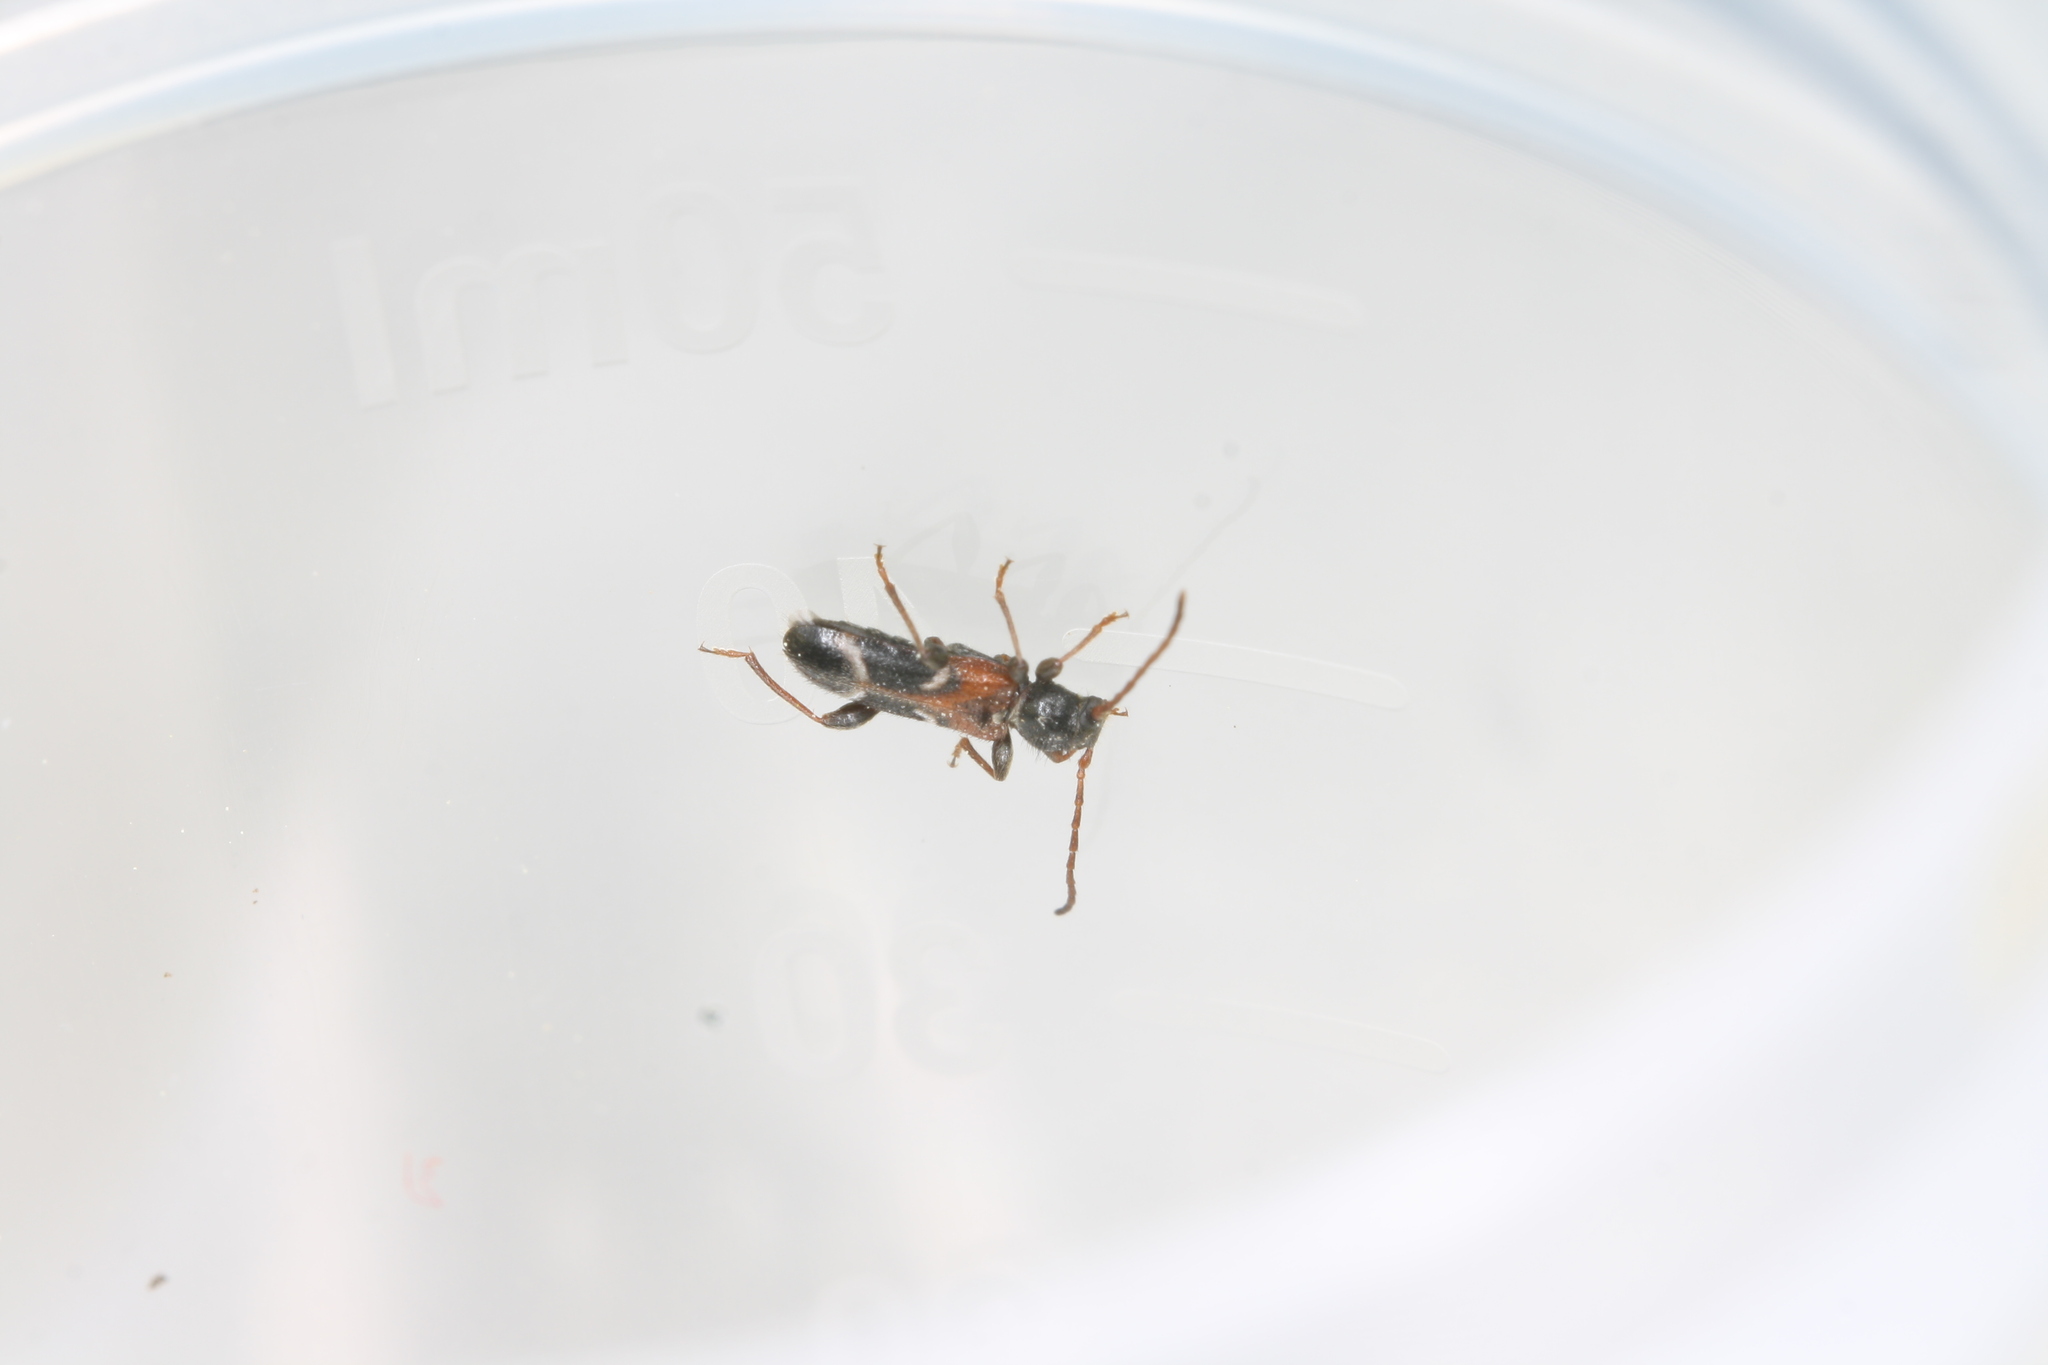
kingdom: Animalia
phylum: Arthropoda
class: Insecta
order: Coleoptera
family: Cerambycidae
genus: Poecilium
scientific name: Poecilium alni
